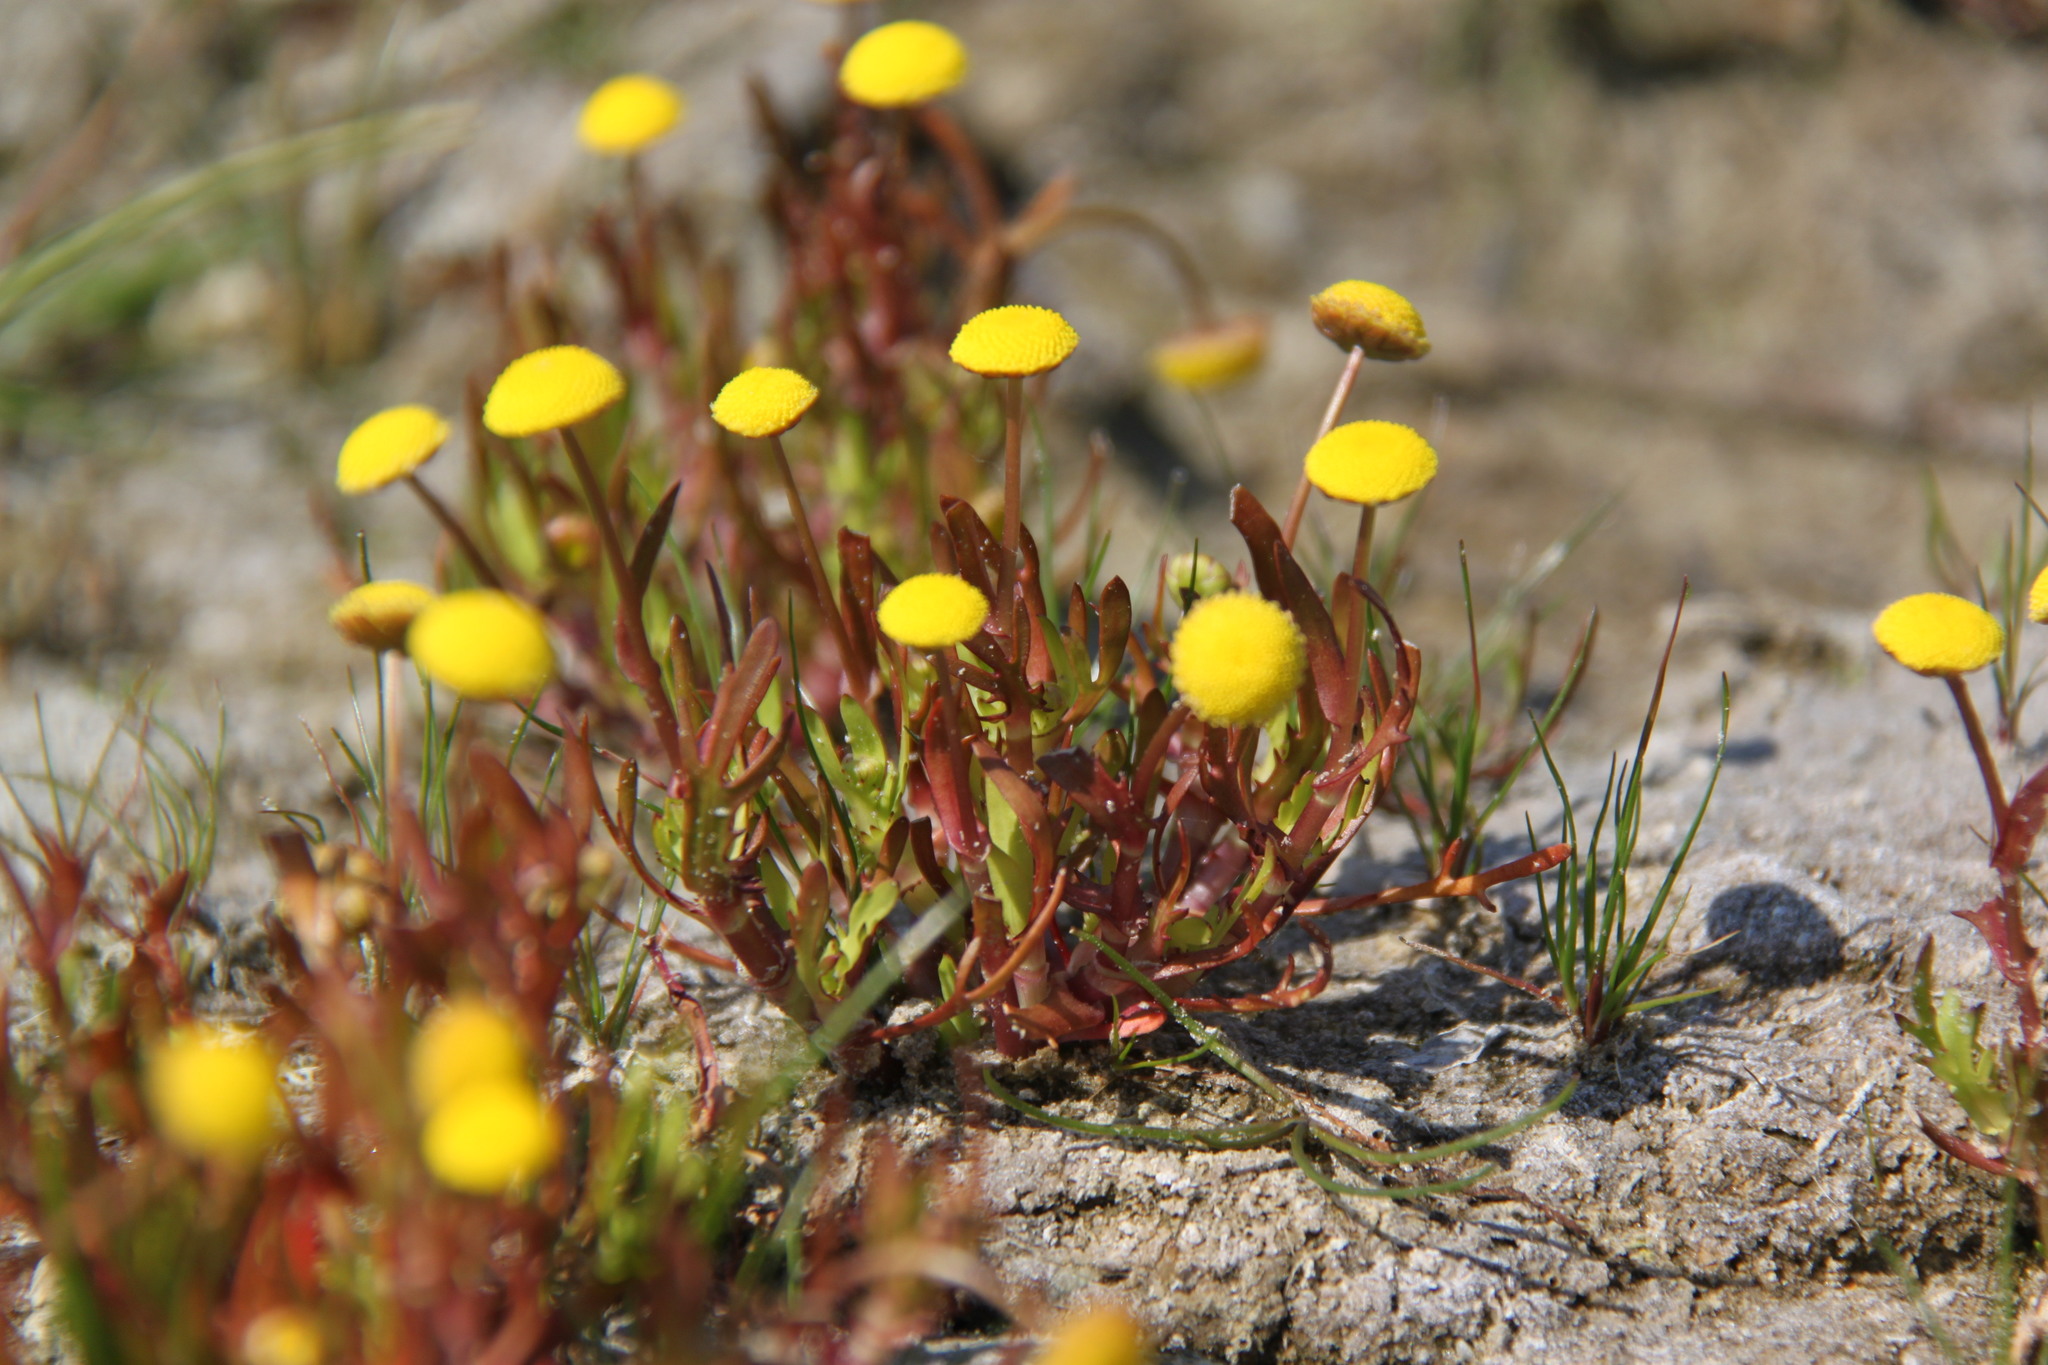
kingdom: Plantae
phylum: Tracheophyta
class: Magnoliopsida
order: Asterales
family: Asteraceae
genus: Cotula
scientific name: Cotula coronopifolia
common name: Buttonweed
